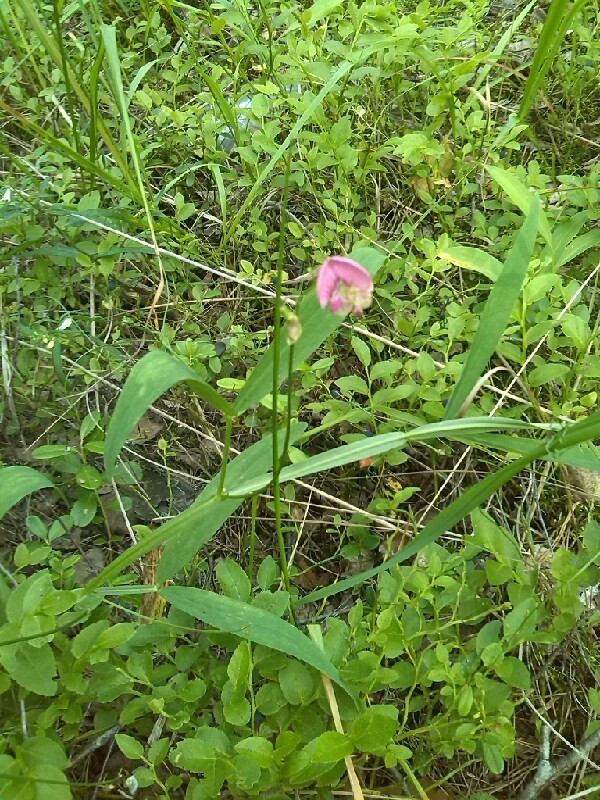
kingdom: Plantae
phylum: Tracheophyta
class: Magnoliopsida
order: Fabales
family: Fabaceae
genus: Lathyrus
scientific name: Lathyrus sylvestris
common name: Flat pea
